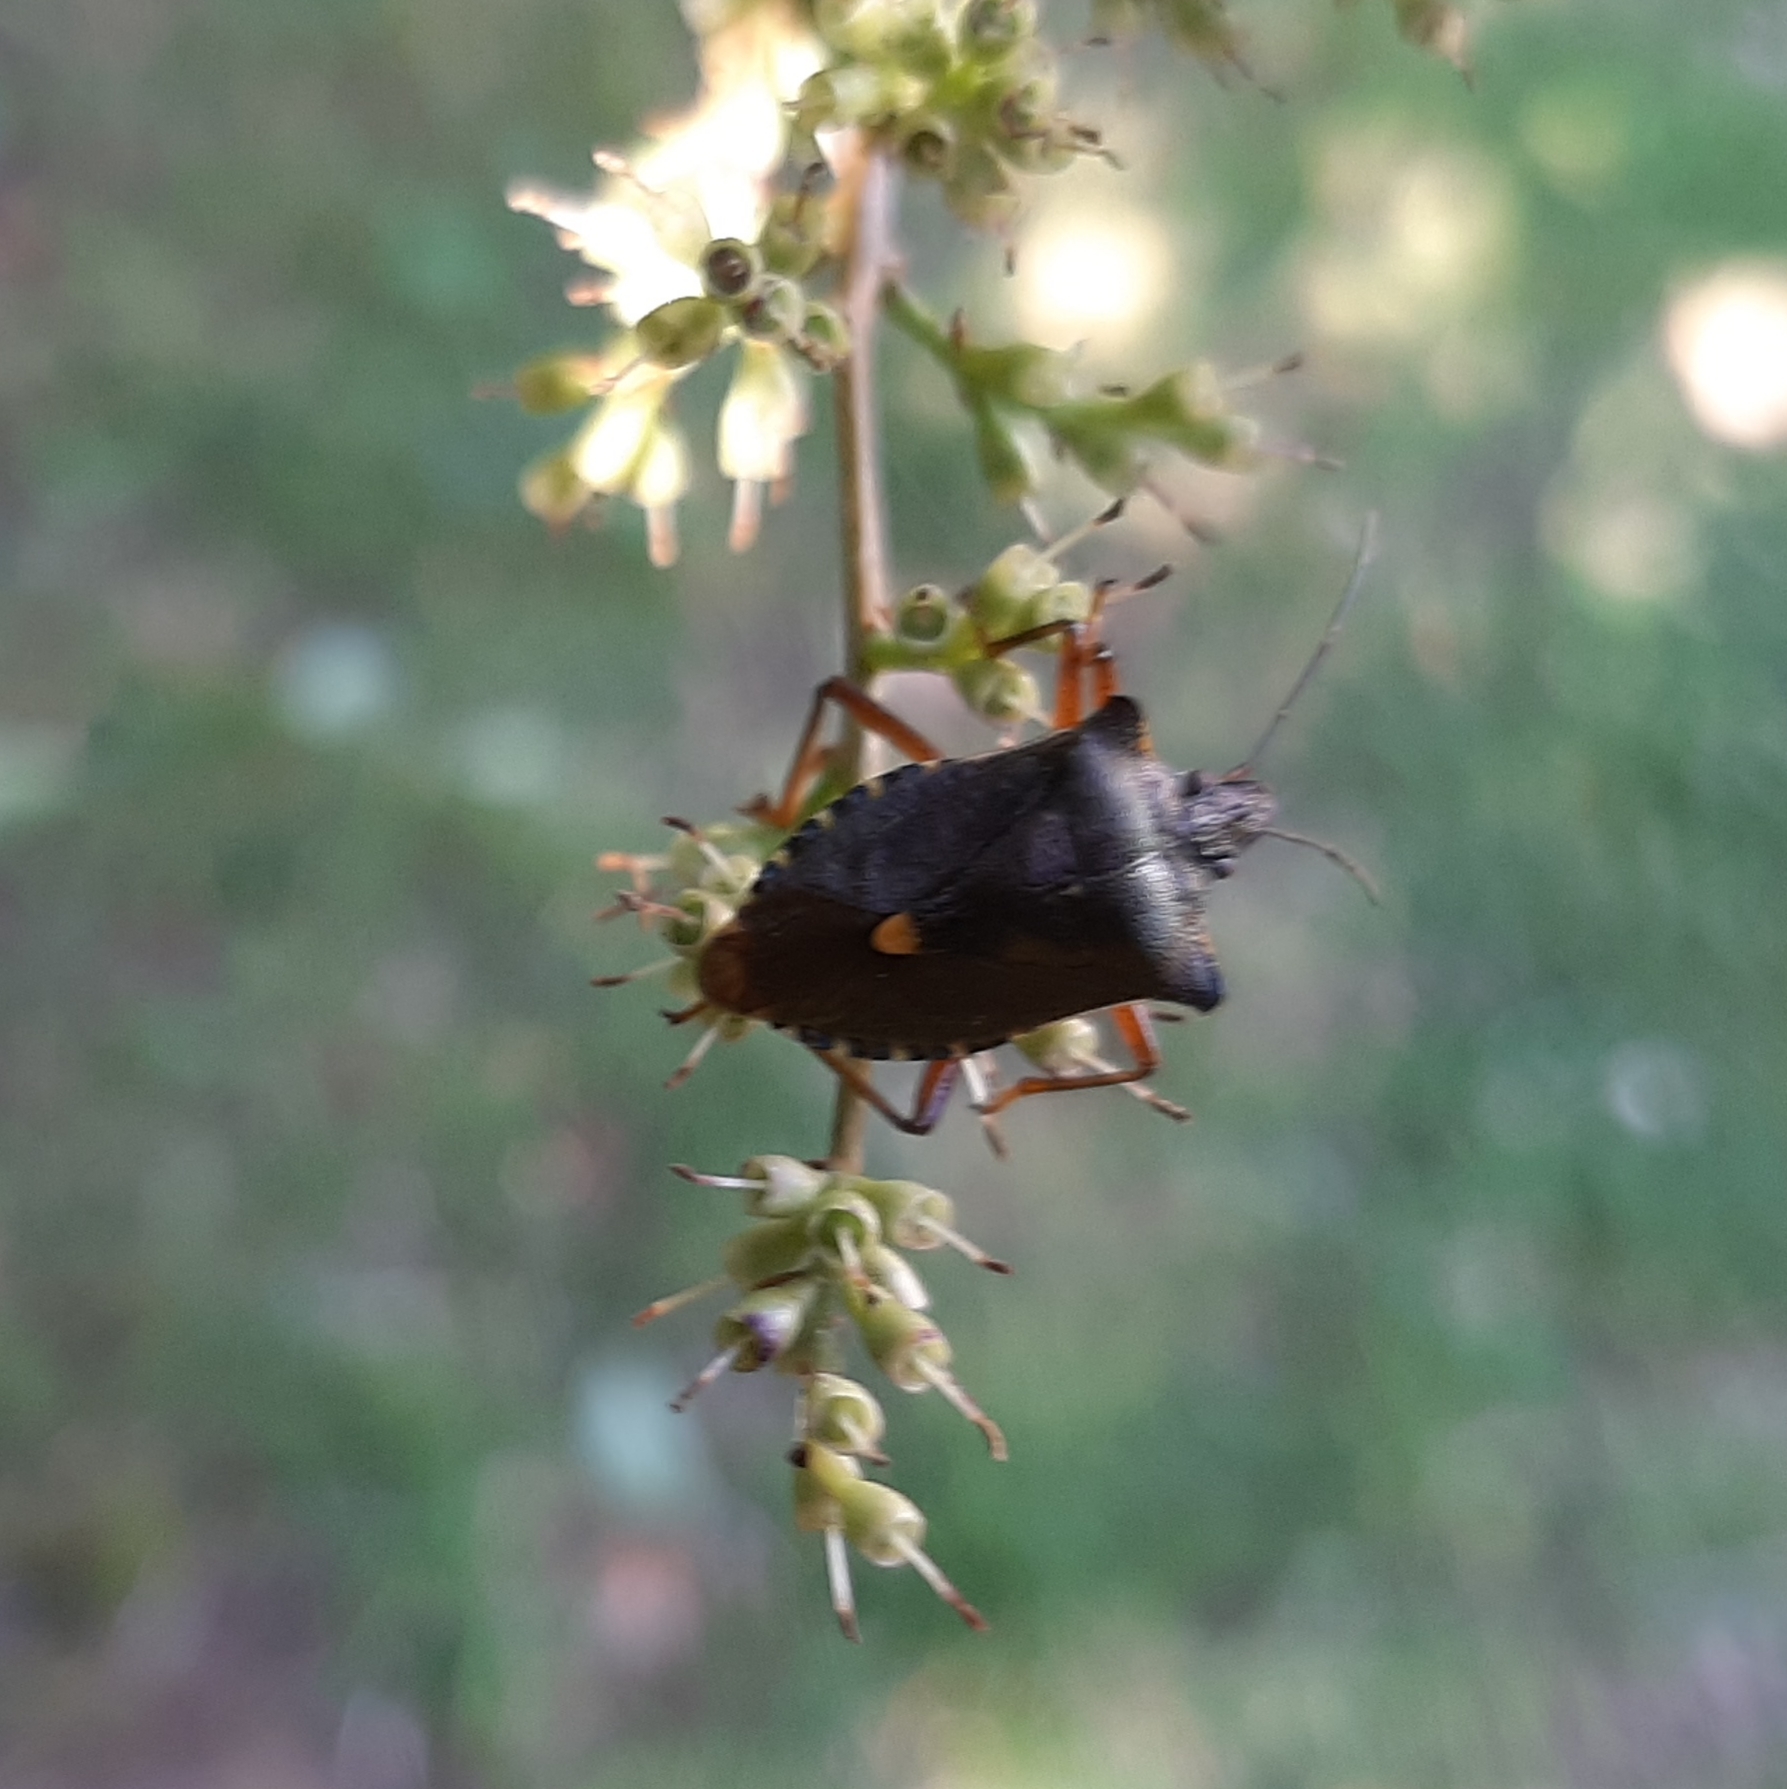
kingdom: Animalia
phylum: Arthropoda
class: Insecta
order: Hemiptera
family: Pentatomidae
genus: Pentatoma
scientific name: Pentatoma rufipes
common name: Forest bug
